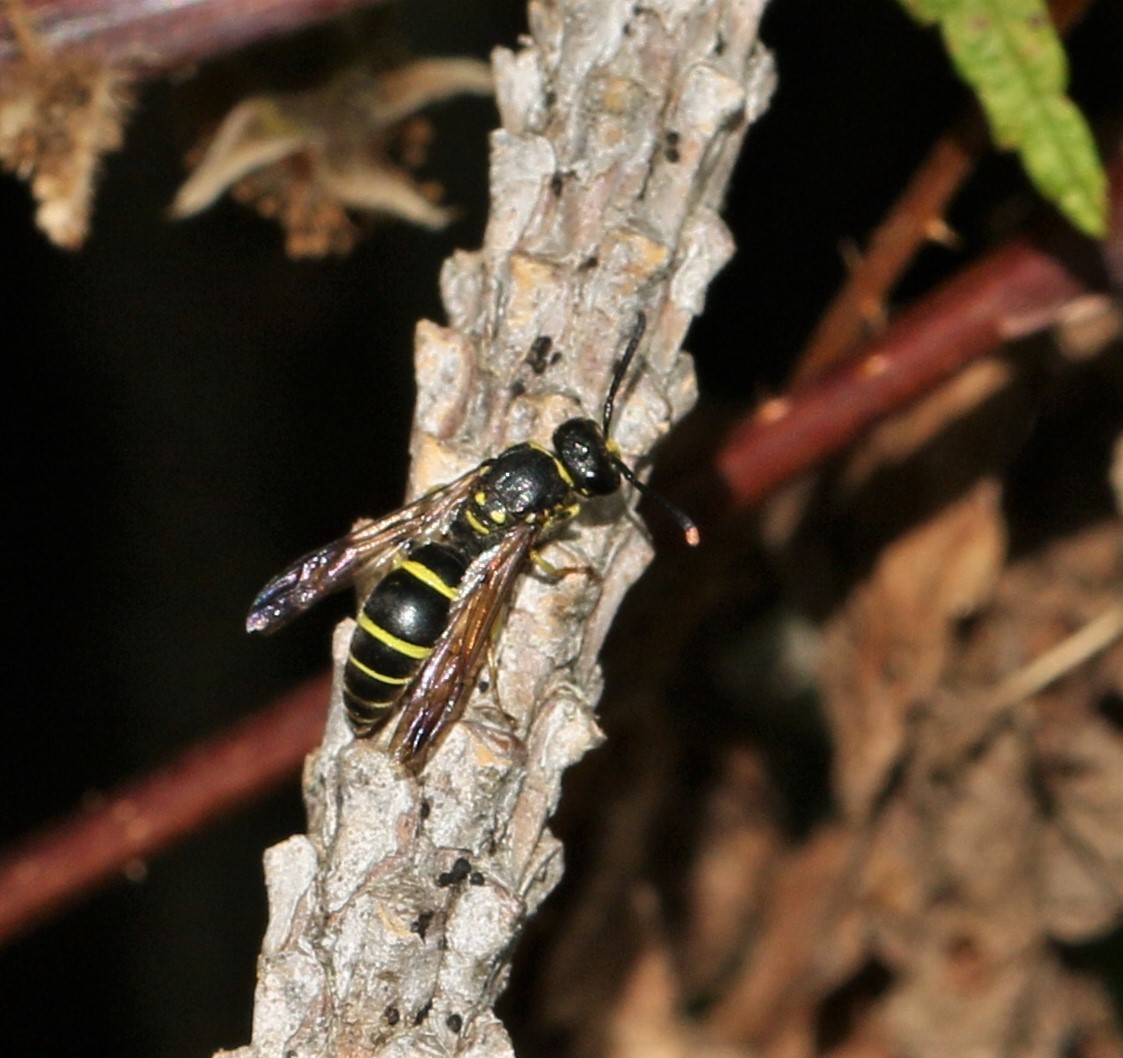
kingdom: Animalia
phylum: Arthropoda
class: Insecta
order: Hymenoptera
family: Vespidae
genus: Ancistrocerus
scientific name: Ancistrocerus adiabatus
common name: Bramble mason wasp
